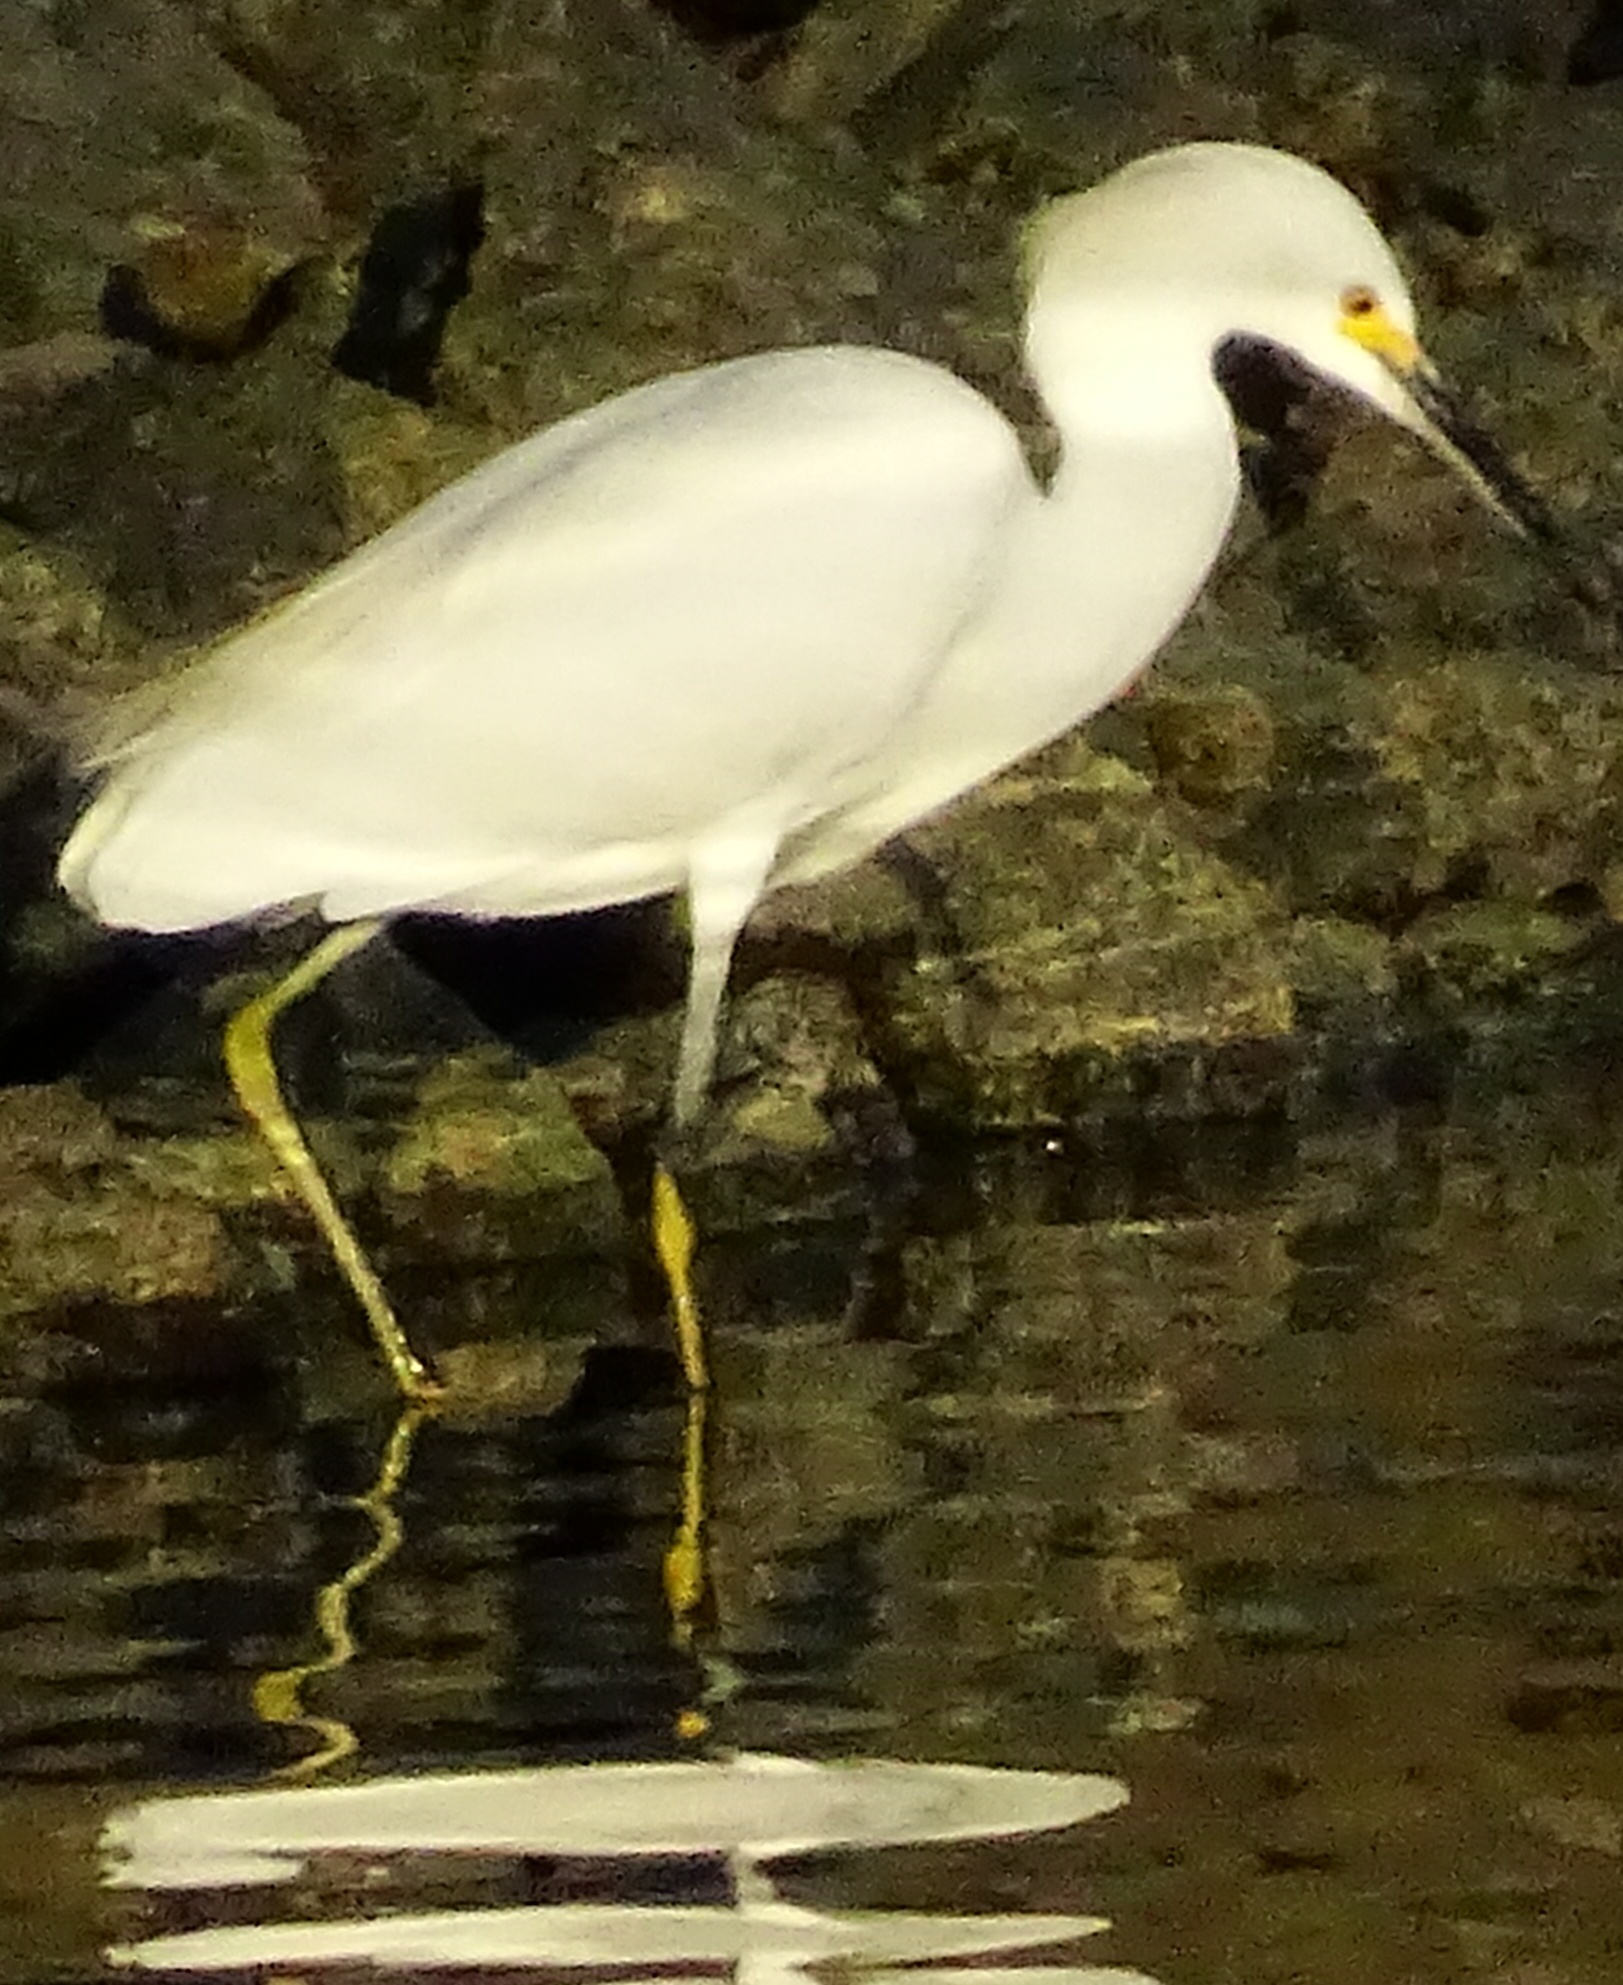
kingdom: Animalia
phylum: Chordata
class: Aves
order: Pelecaniformes
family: Ardeidae
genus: Egretta
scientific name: Egretta thula
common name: Snowy egret
